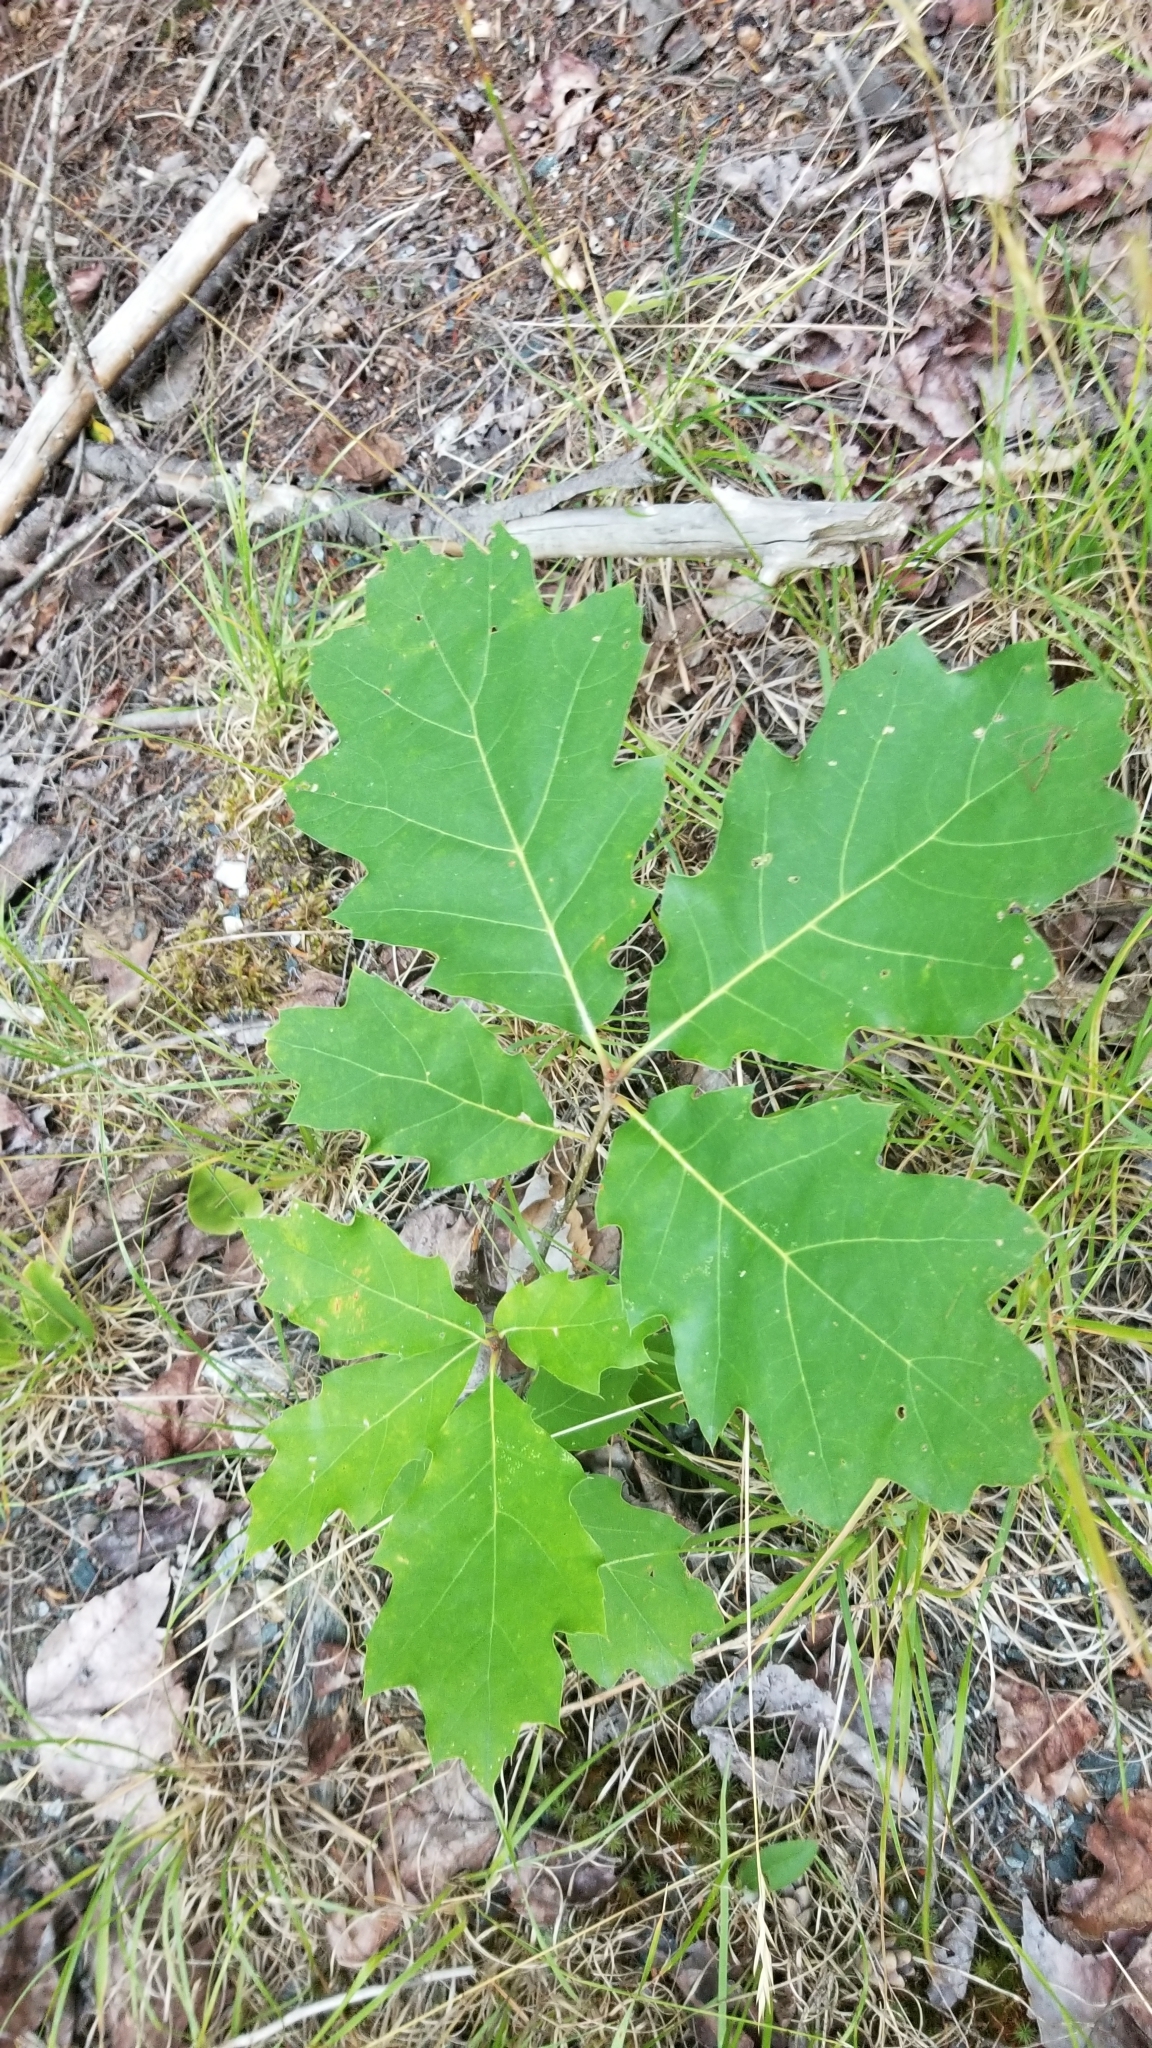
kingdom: Plantae
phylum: Tracheophyta
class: Magnoliopsida
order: Fagales
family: Fagaceae
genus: Quercus
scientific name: Quercus rubra
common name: Red oak
